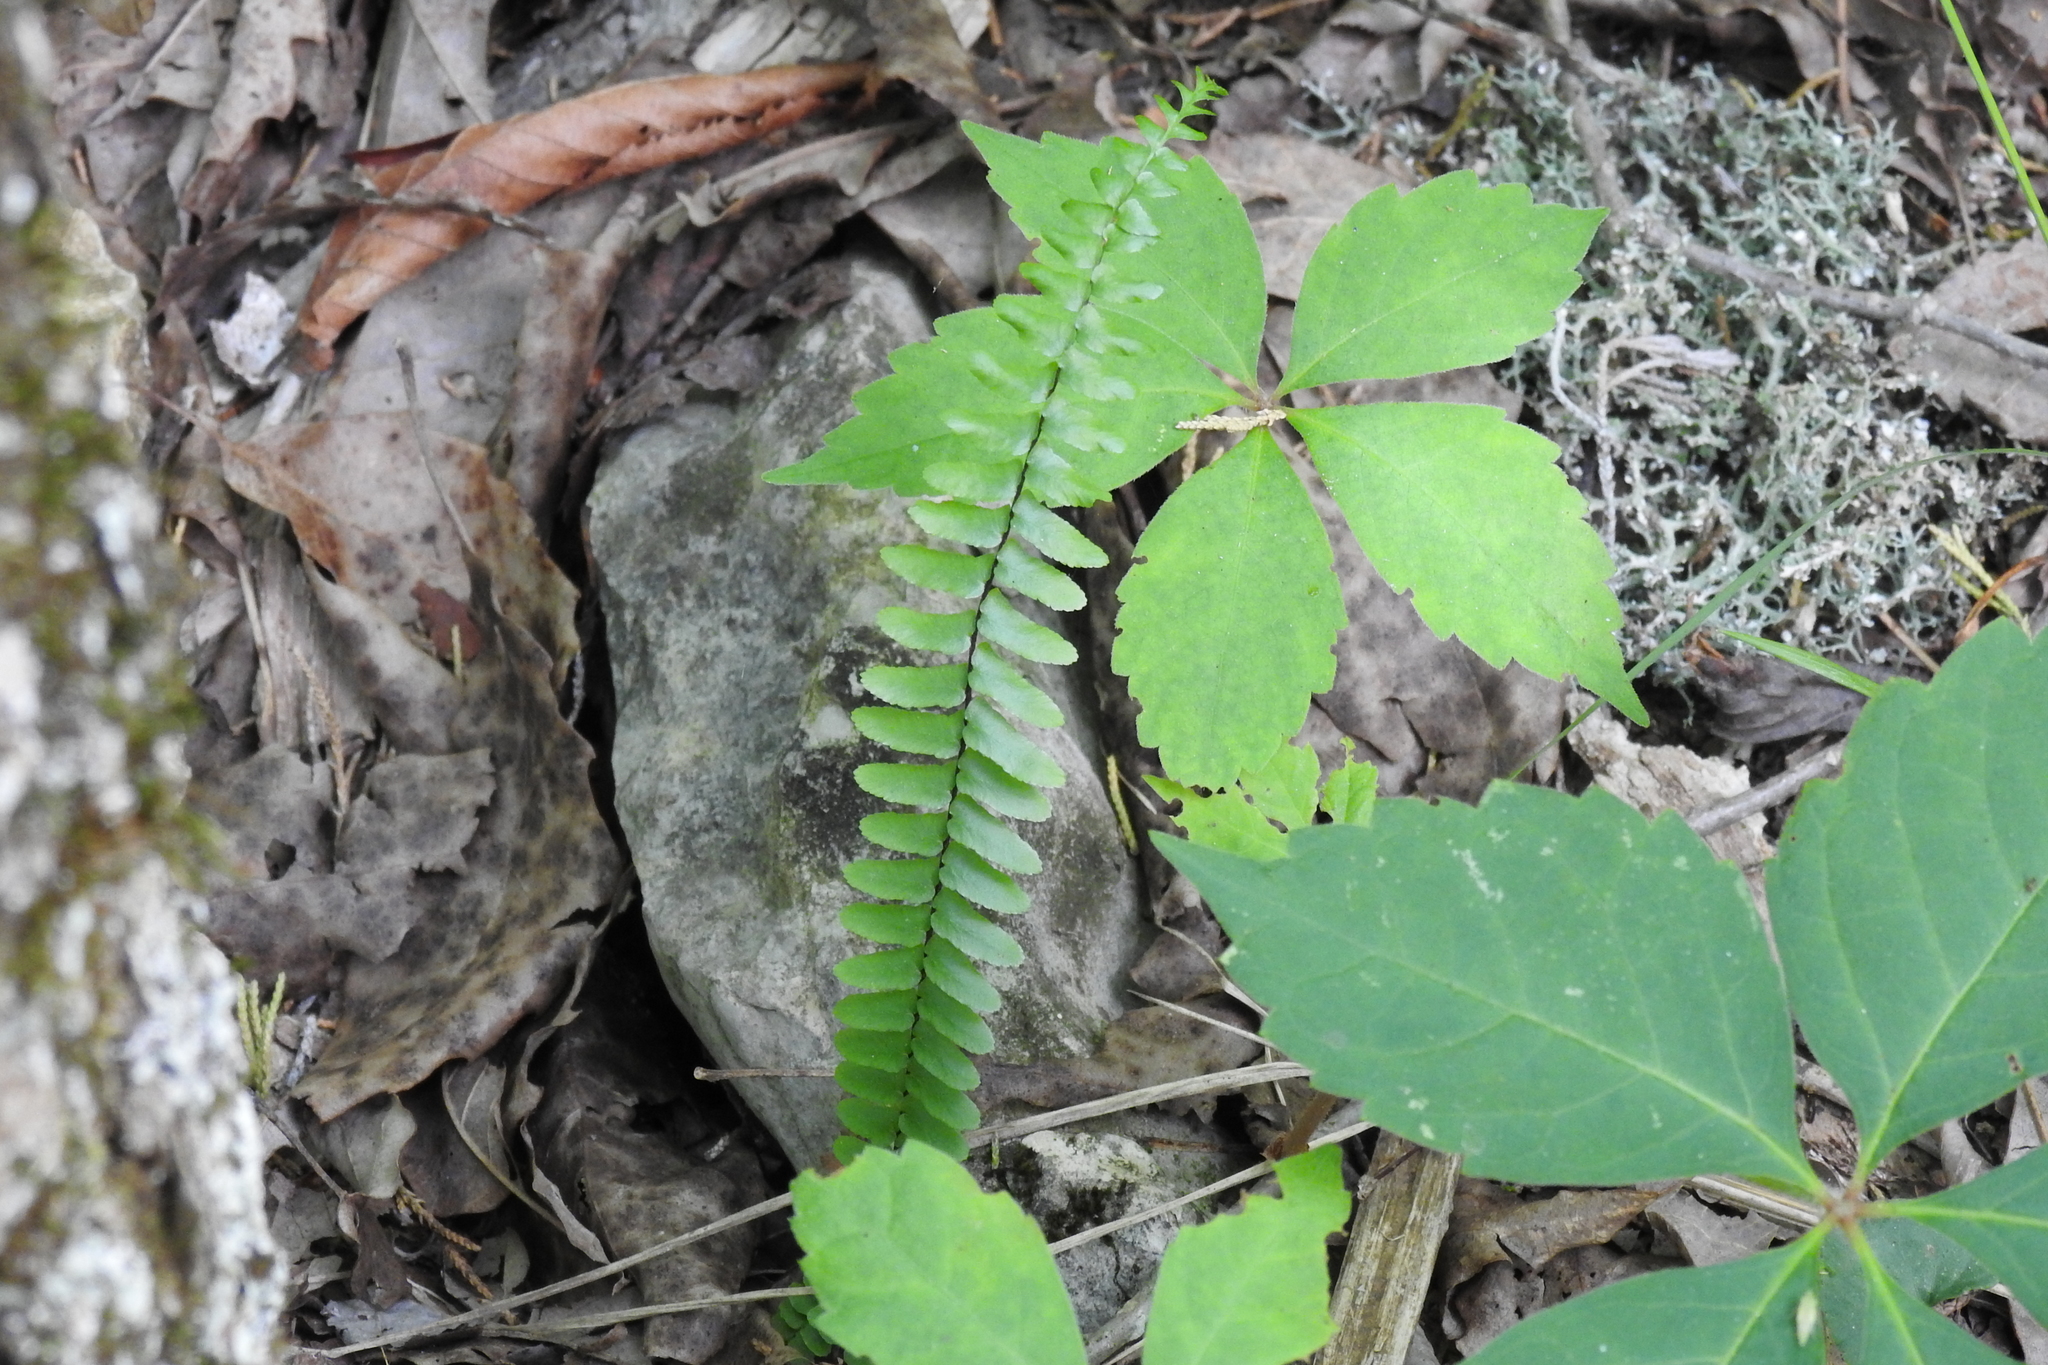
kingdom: Plantae
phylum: Tracheophyta
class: Polypodiopsida
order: Polypodiales
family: Aspleniaceae
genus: Asplenium
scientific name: Asplenium platyneuron
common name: Ebony spleenwort
